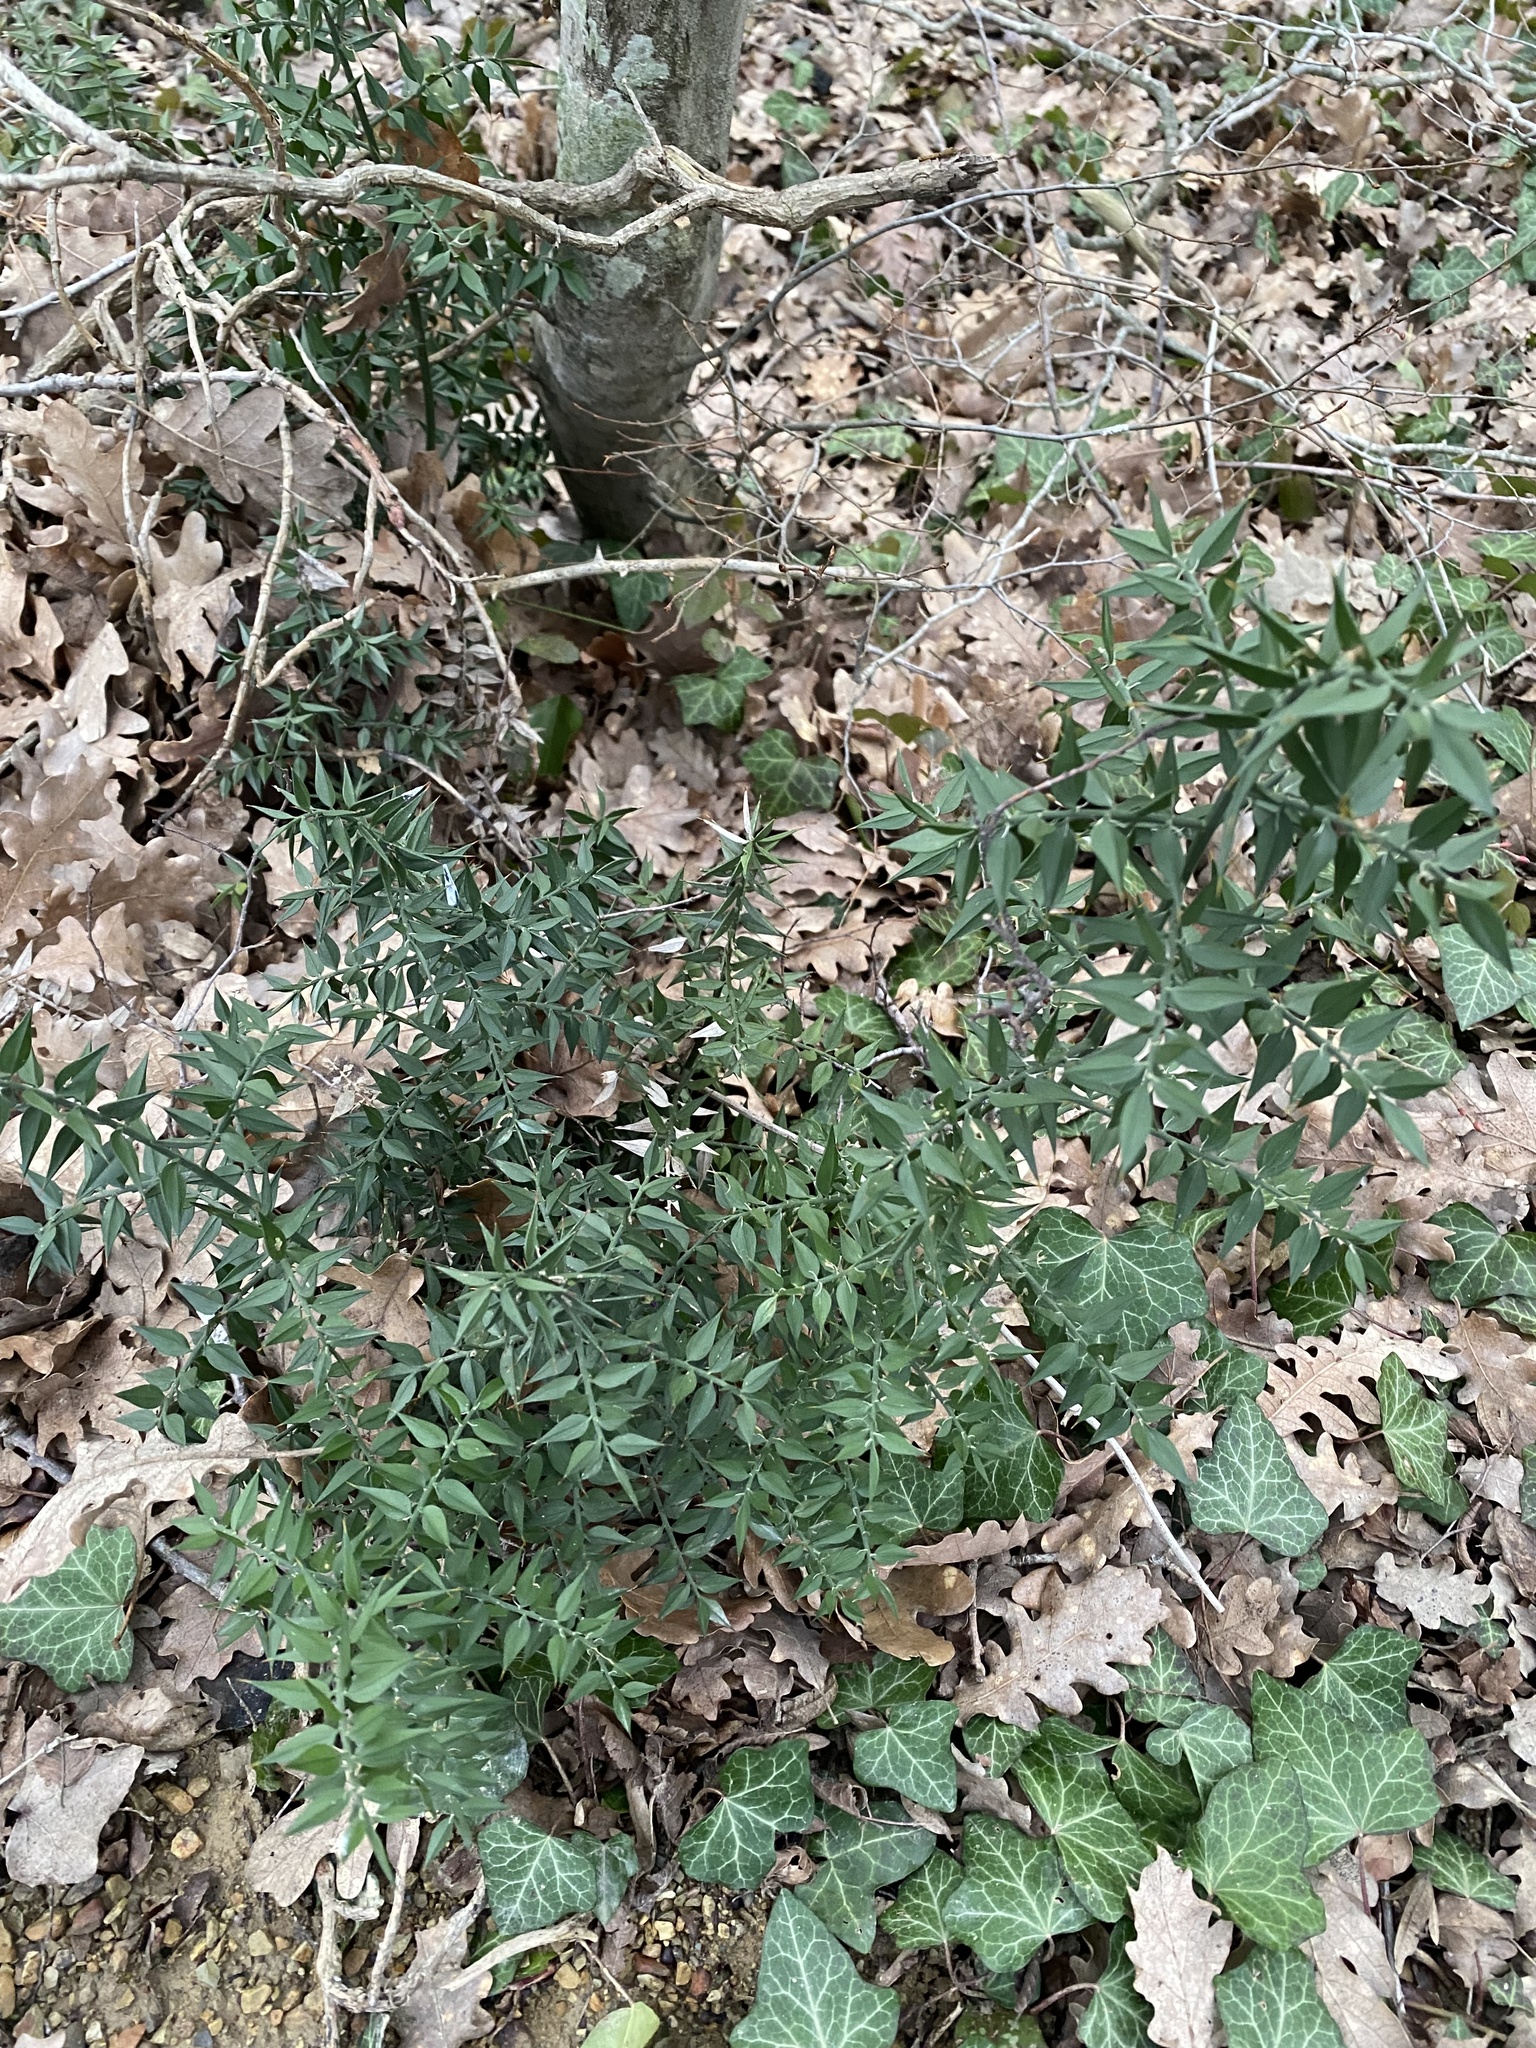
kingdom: Plantae
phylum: Tracheophyta
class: Liliopsida
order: Asparagales
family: Asparagaceae
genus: Ruscus
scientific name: Ruscus aculeatus
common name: Butcher's-broom
